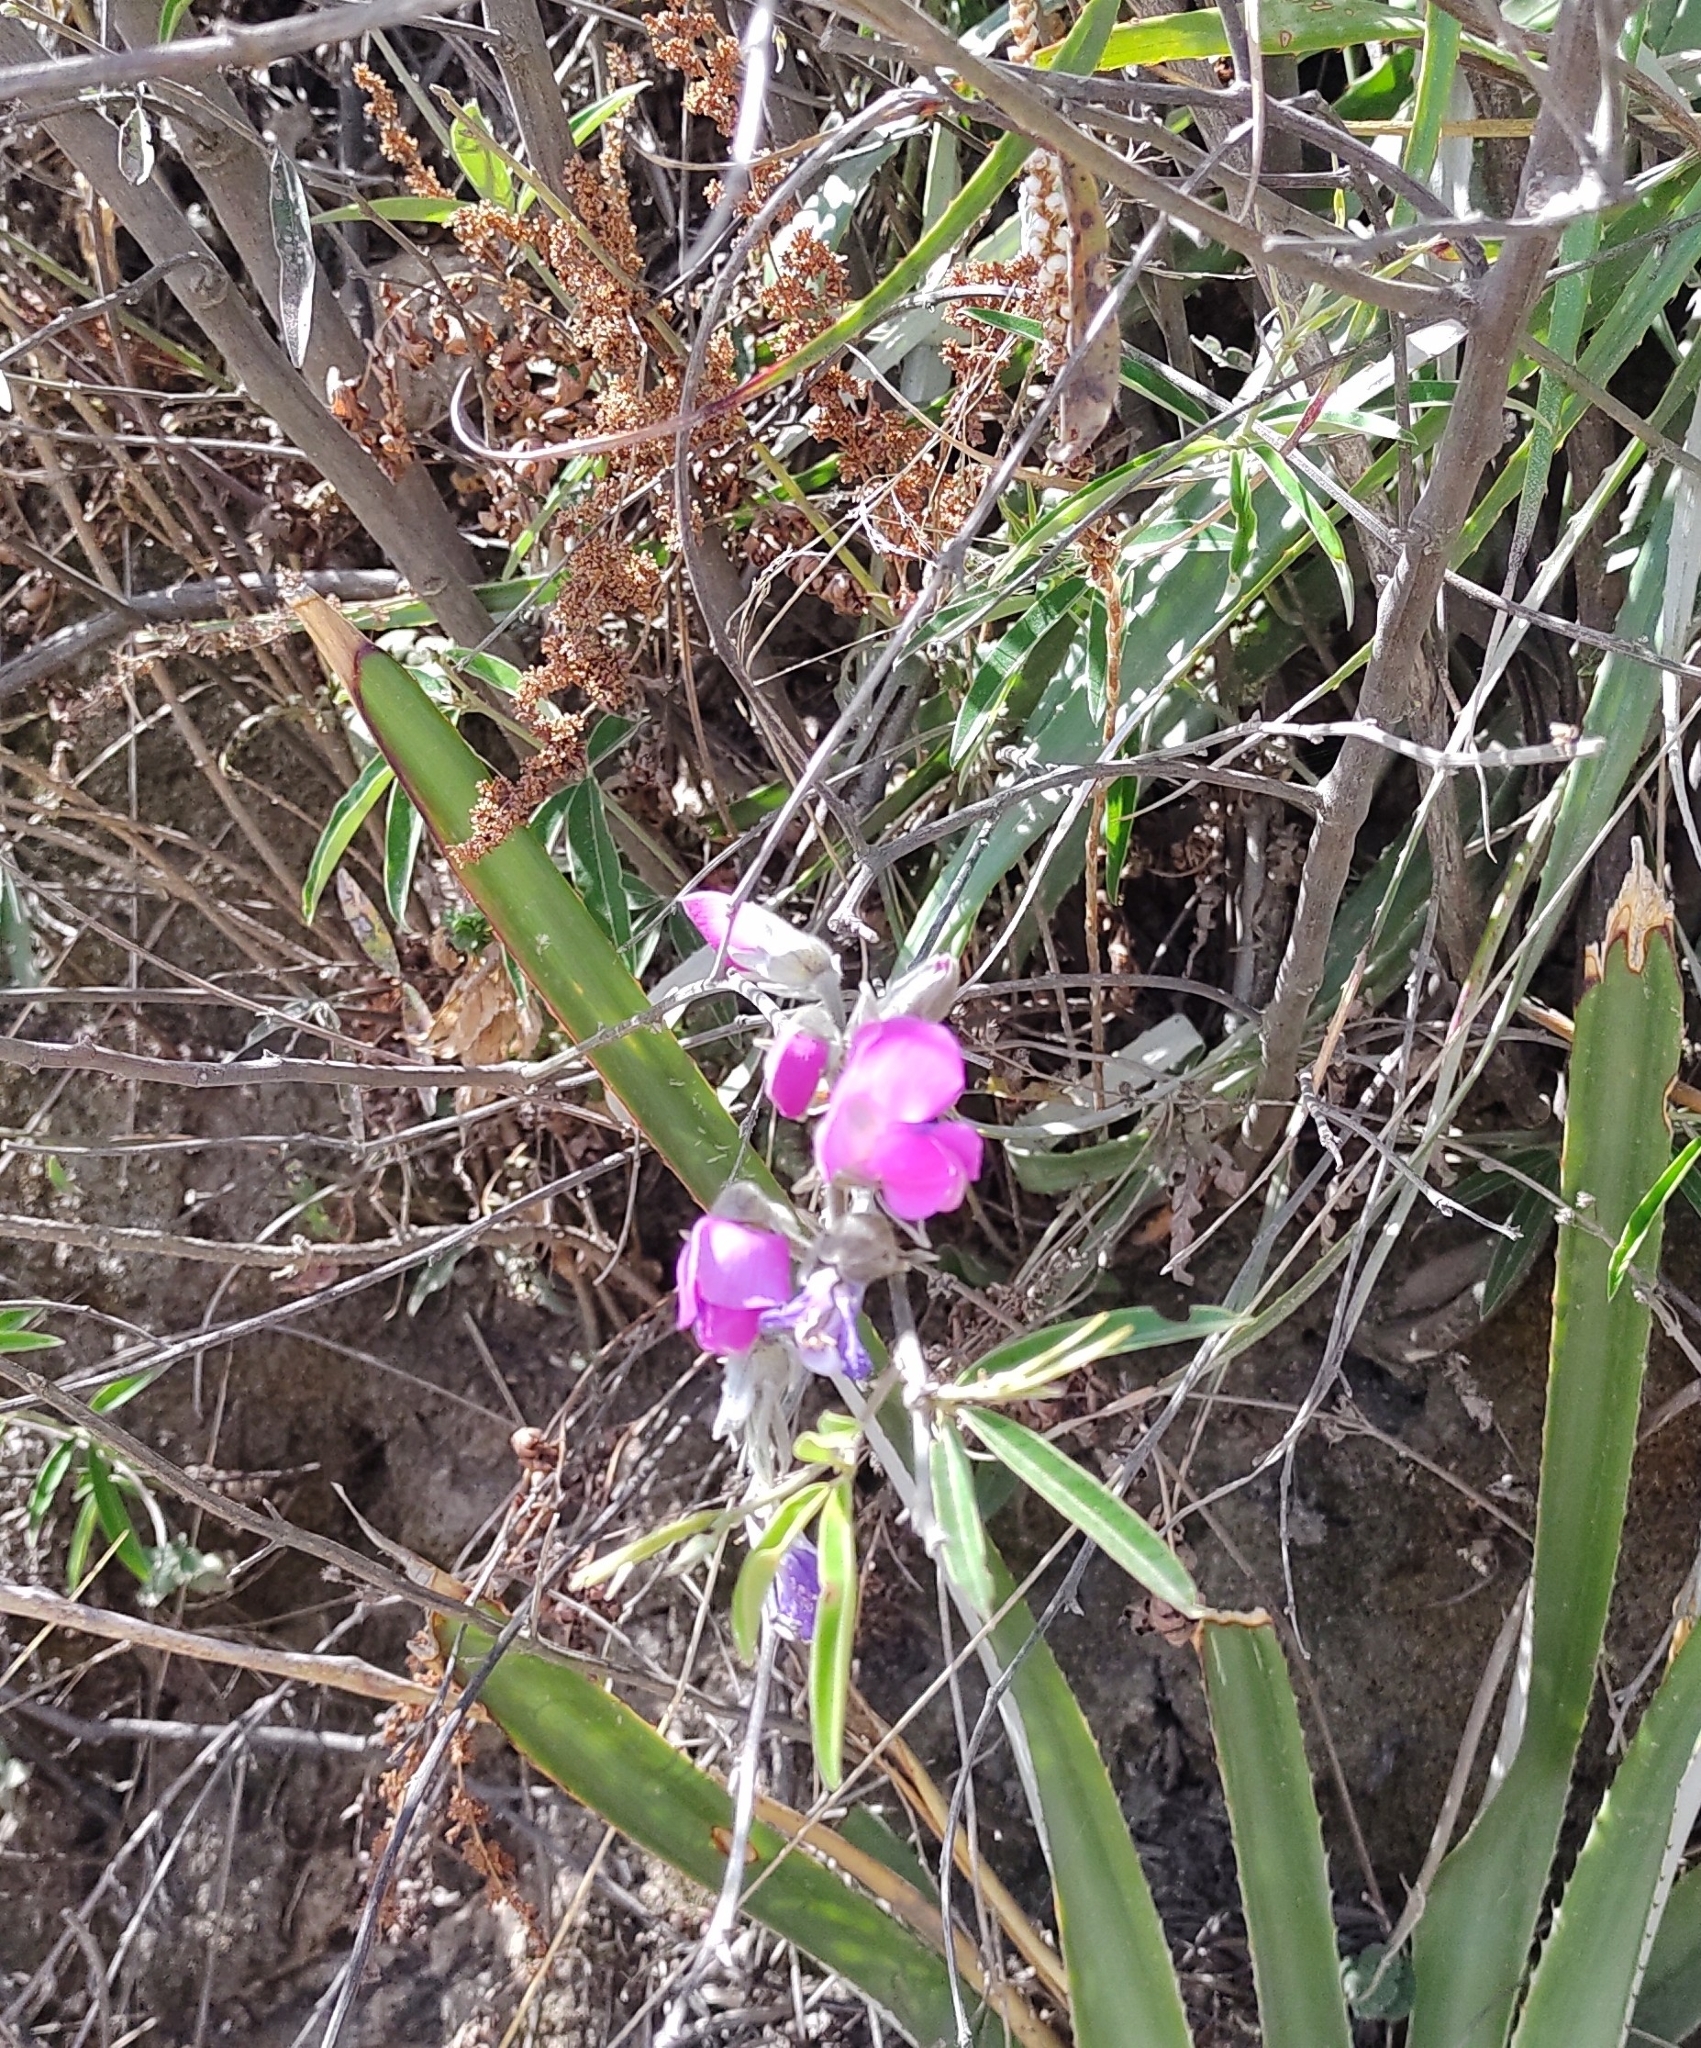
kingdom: Plantae
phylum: Tracheophyta
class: Magnoliopsida
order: Fabales
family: Fabaceae
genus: Nanogalactia
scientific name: Nanogalactia heterophylla
